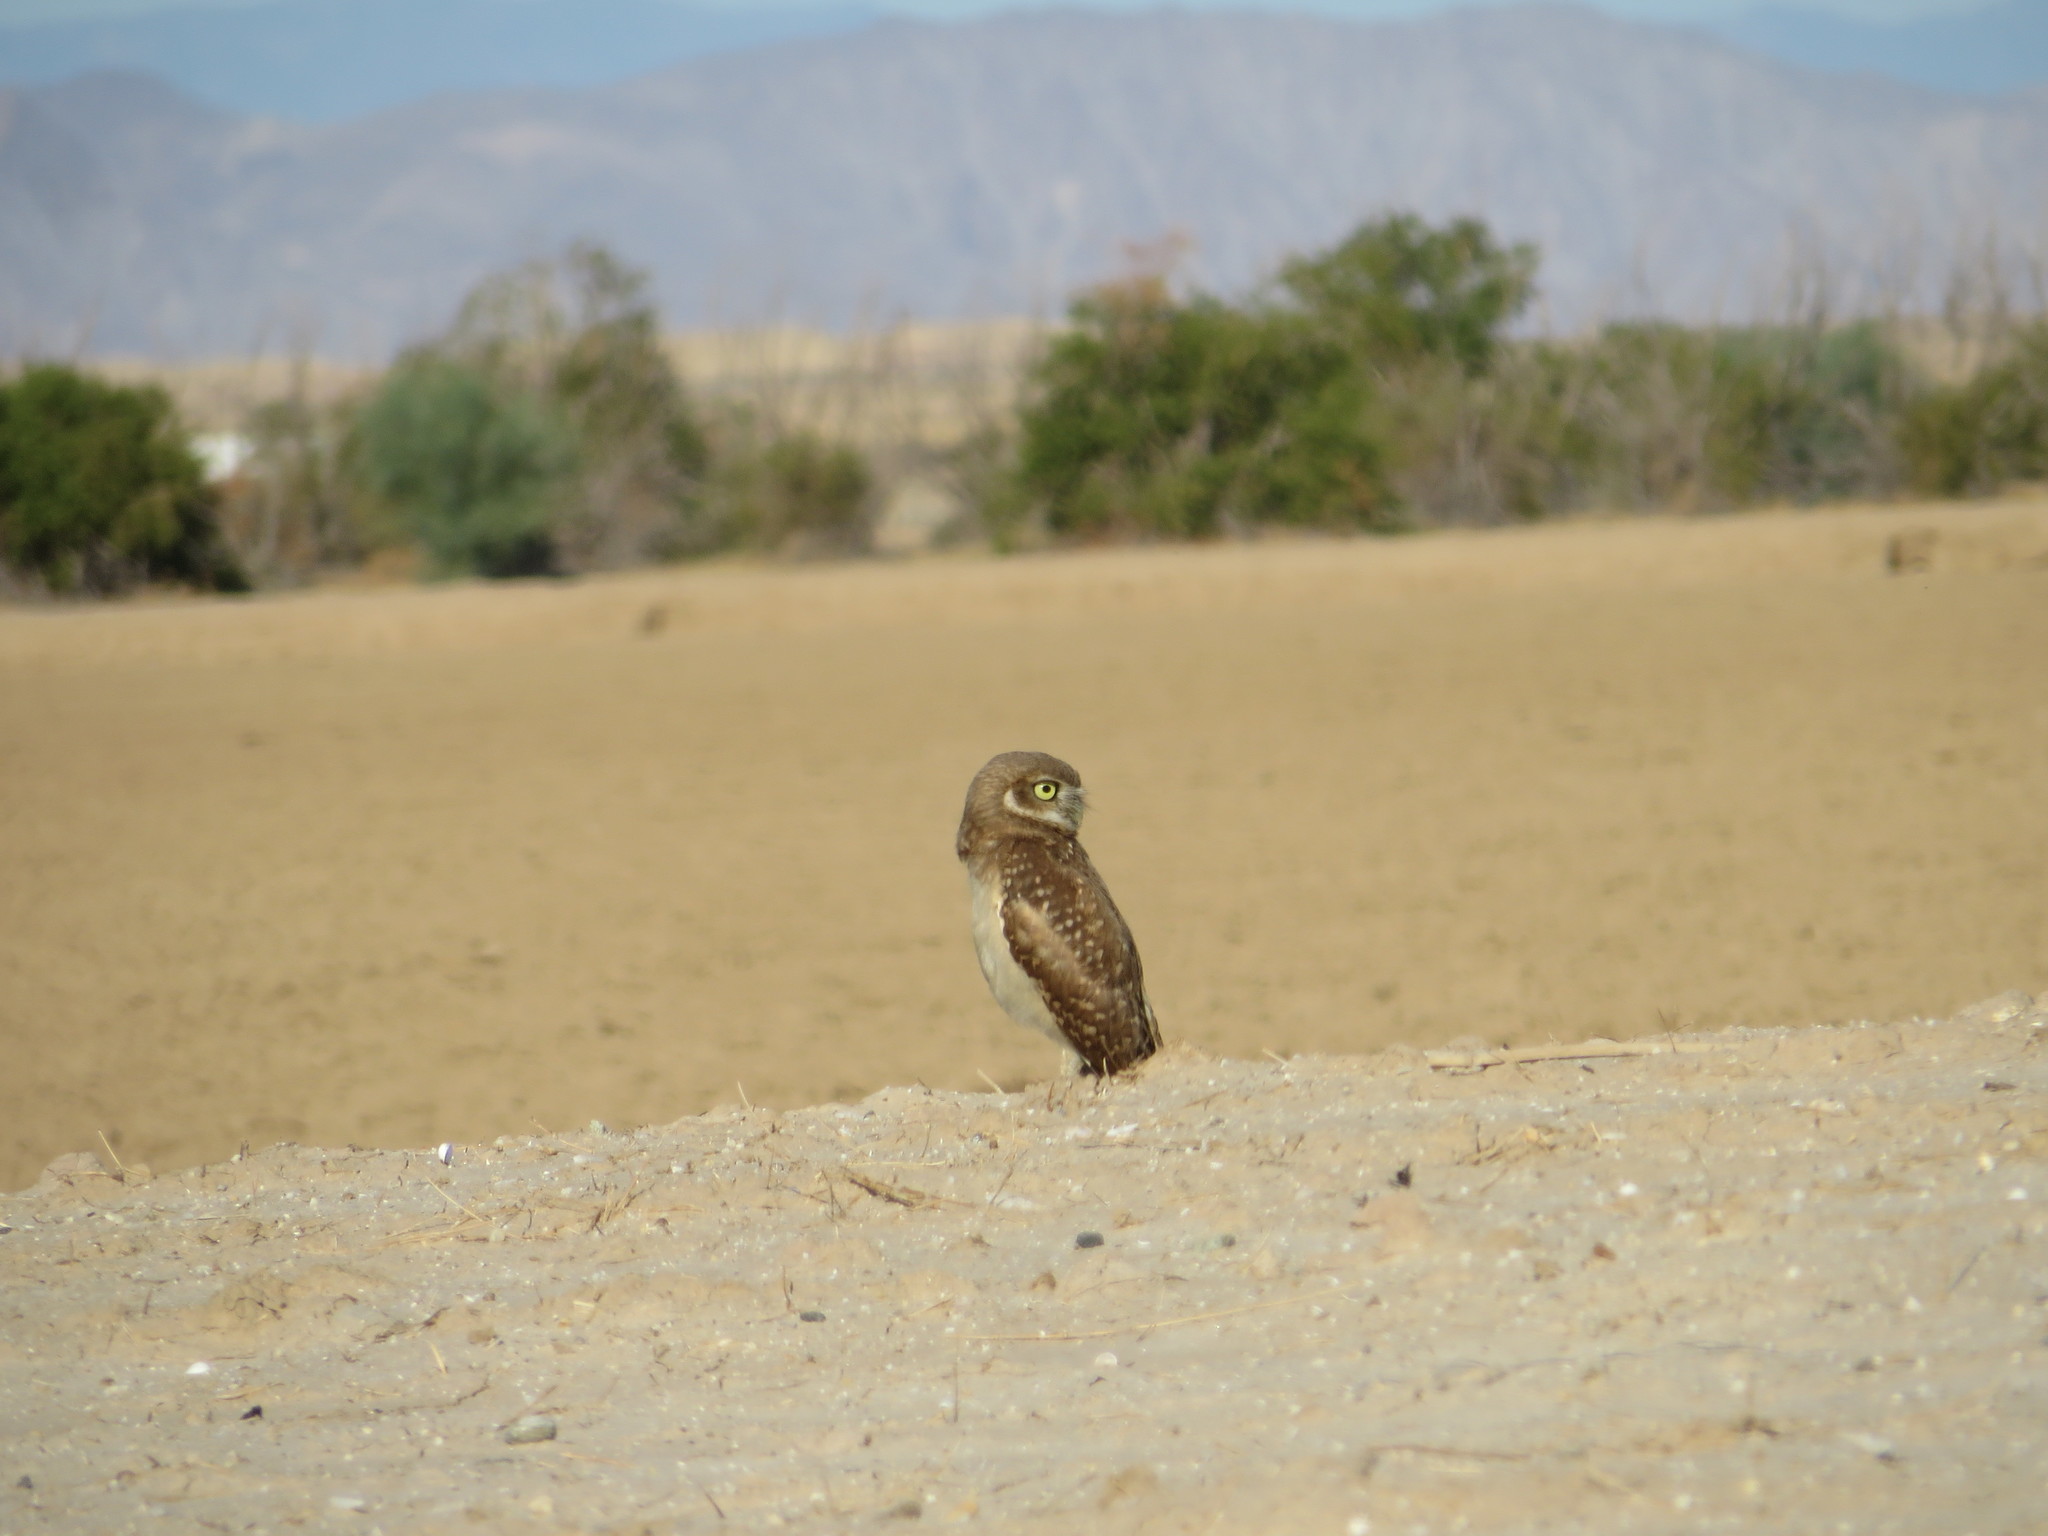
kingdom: Animalia
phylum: Chordata
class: Aves
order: Strigiformes
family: Strigidae
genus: Athene
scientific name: Athene cunicularia
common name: Burrowing owl
